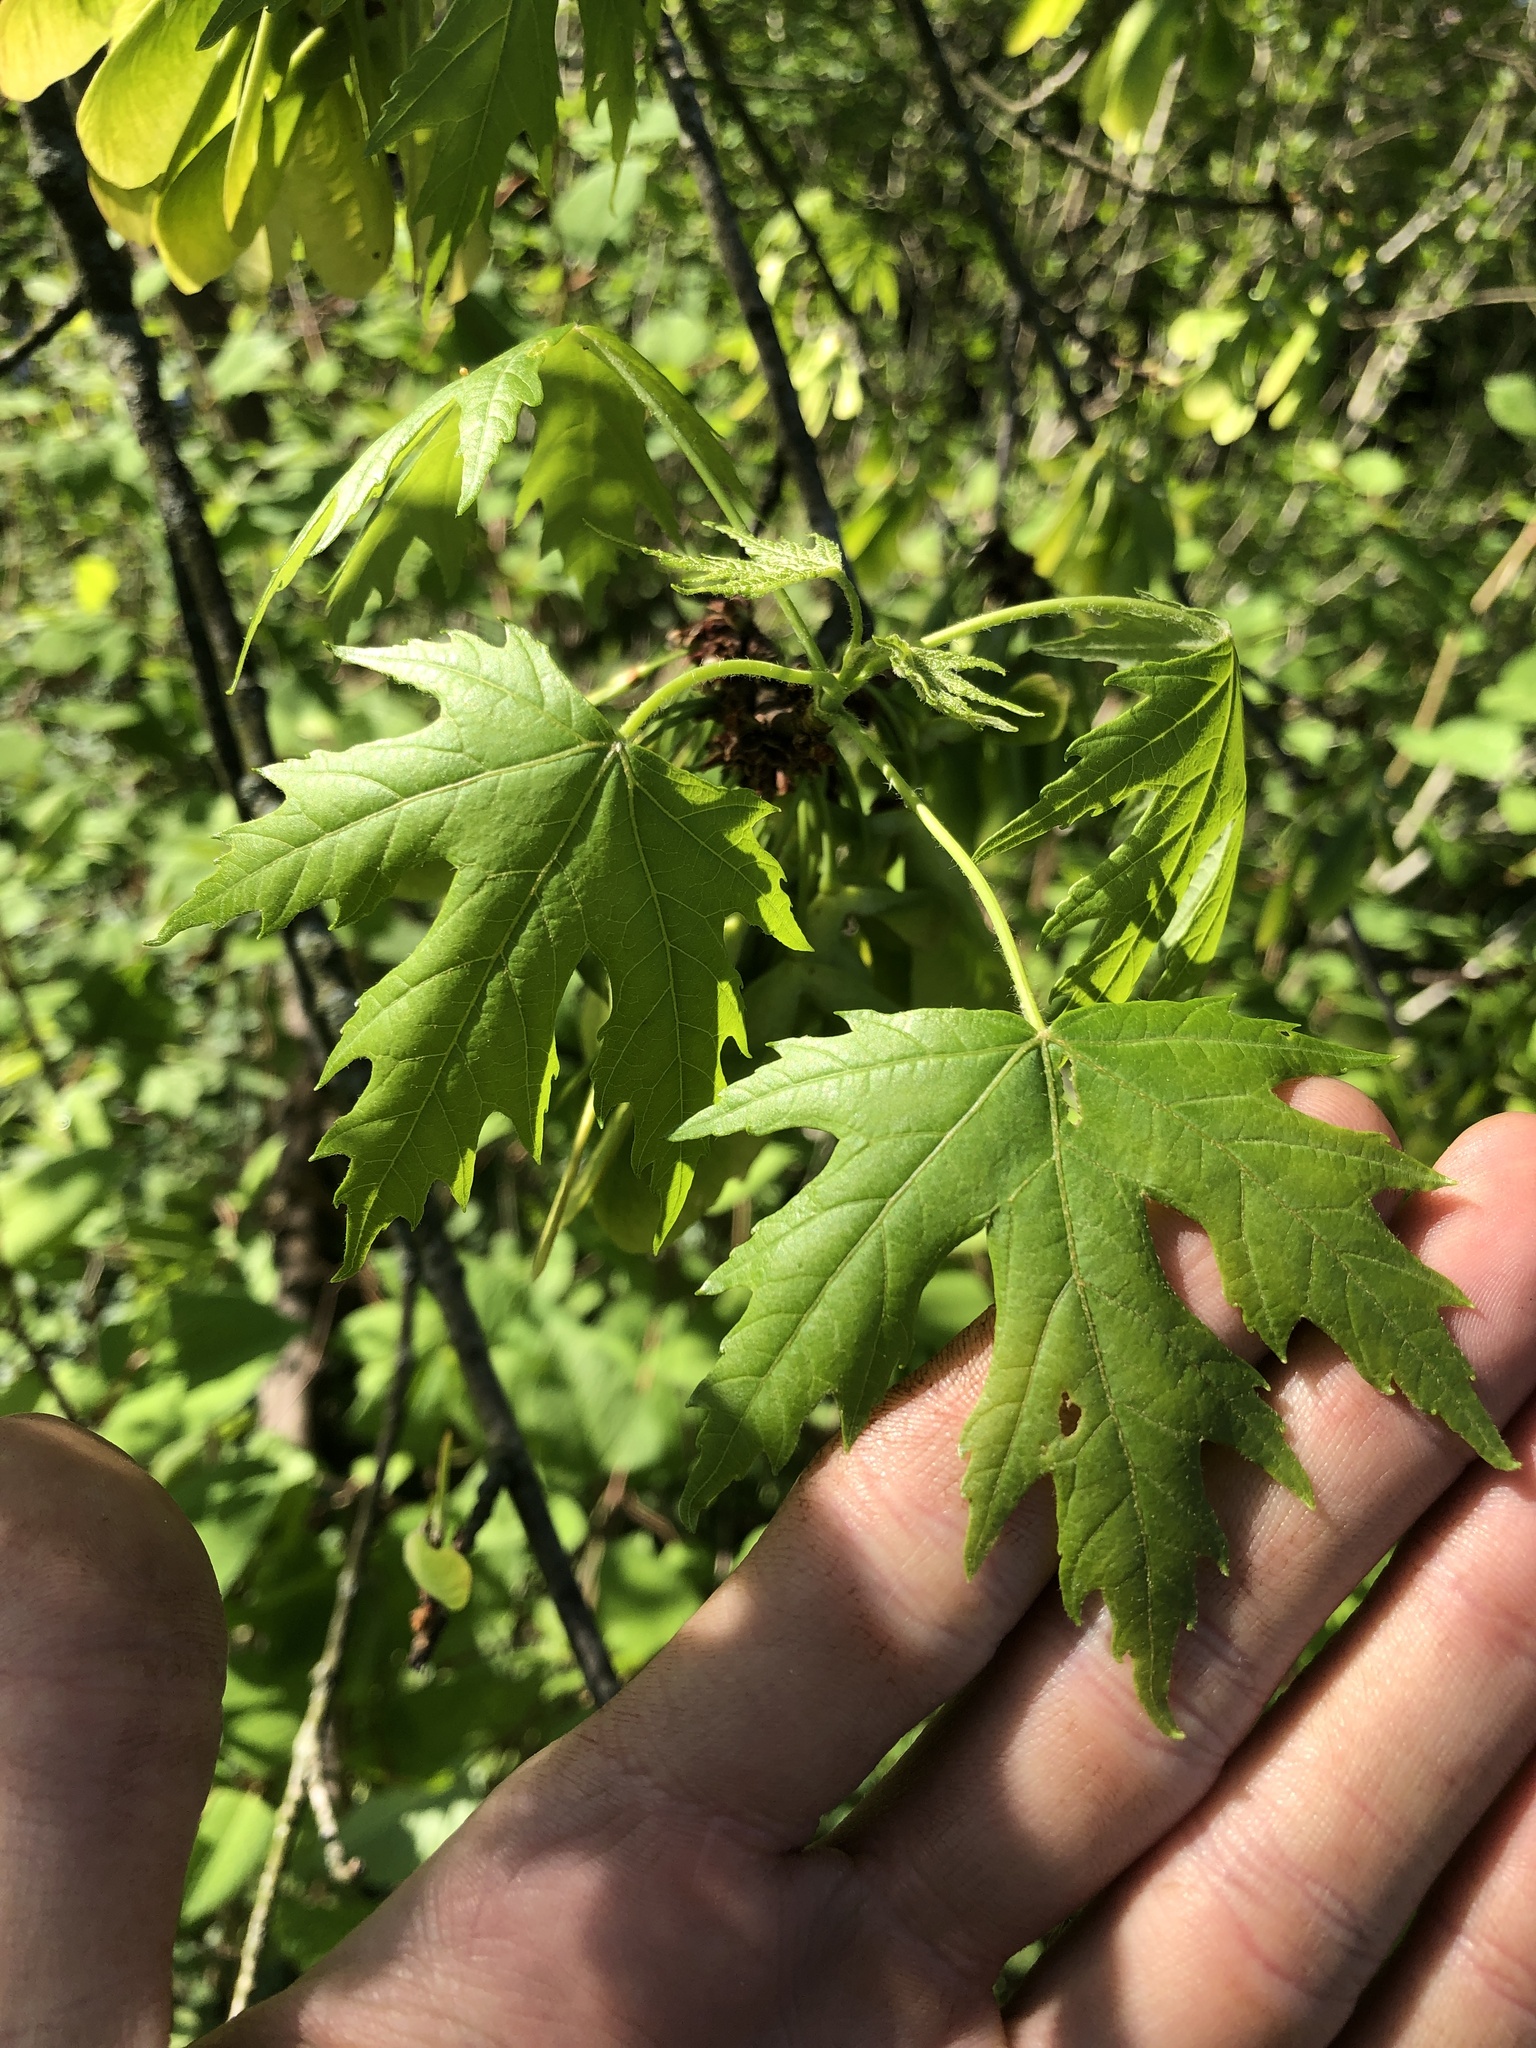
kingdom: Plantae
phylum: Tracheophyta
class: Magnoliopsida
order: Sapindales
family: Sapindaceae
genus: Acer
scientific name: Acer saccharinum
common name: Silver maple
